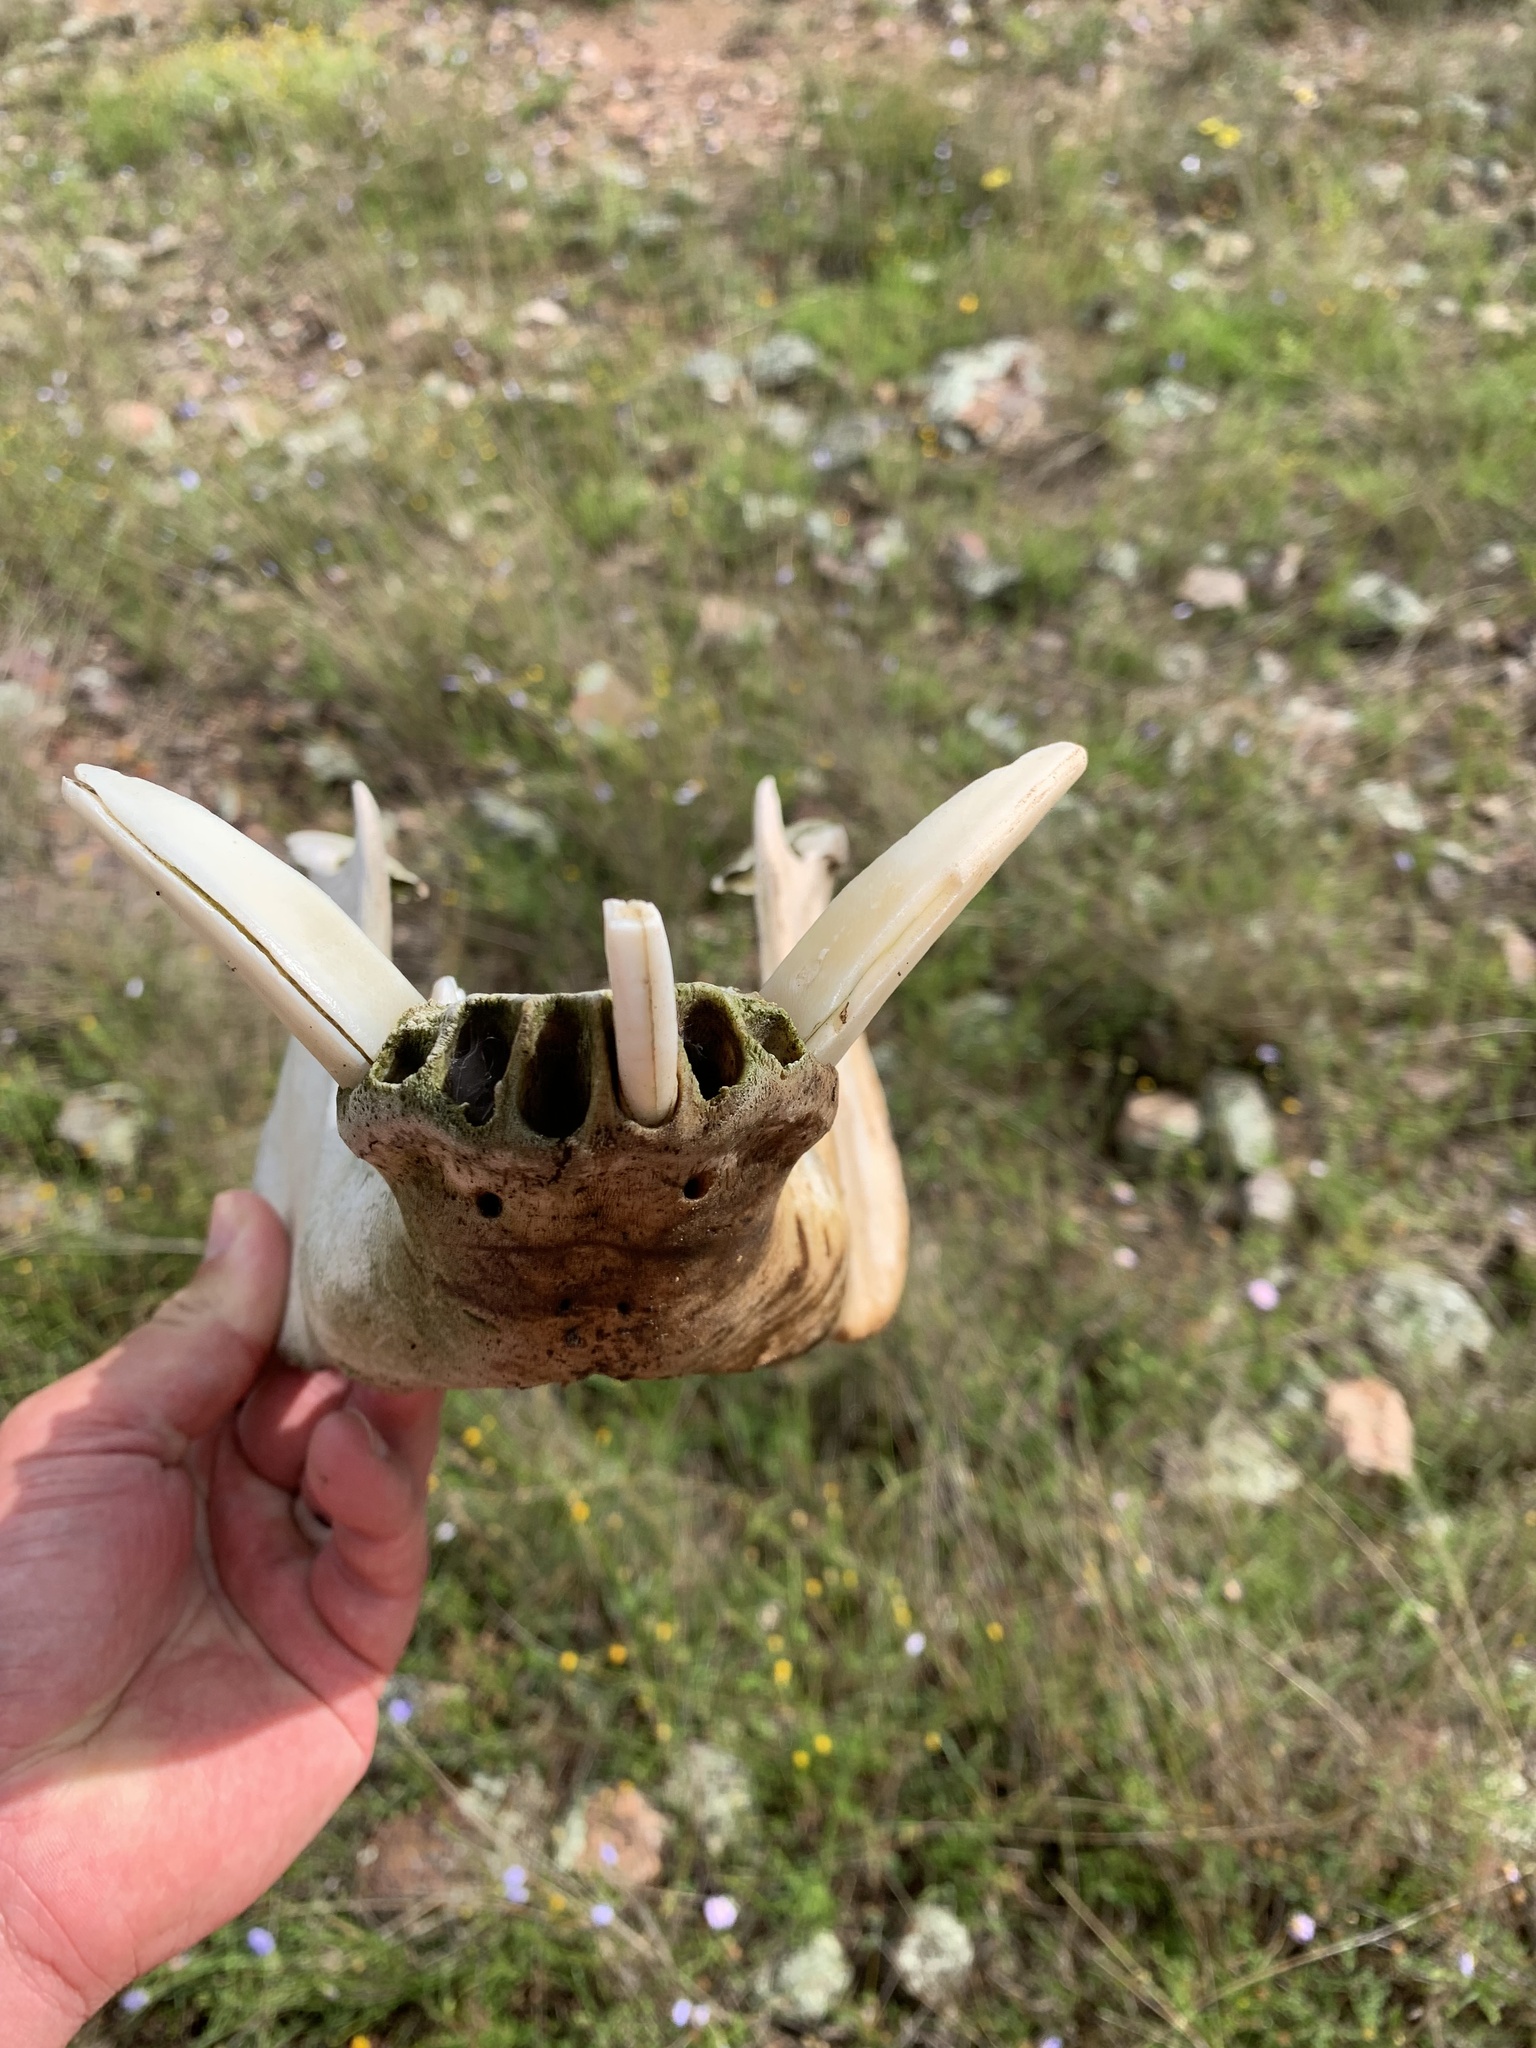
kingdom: Animalia
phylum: Chordata
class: Mammalia
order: Artiodactyla
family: Suidae
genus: Sus
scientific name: Sus scrofa
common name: Wild boar
